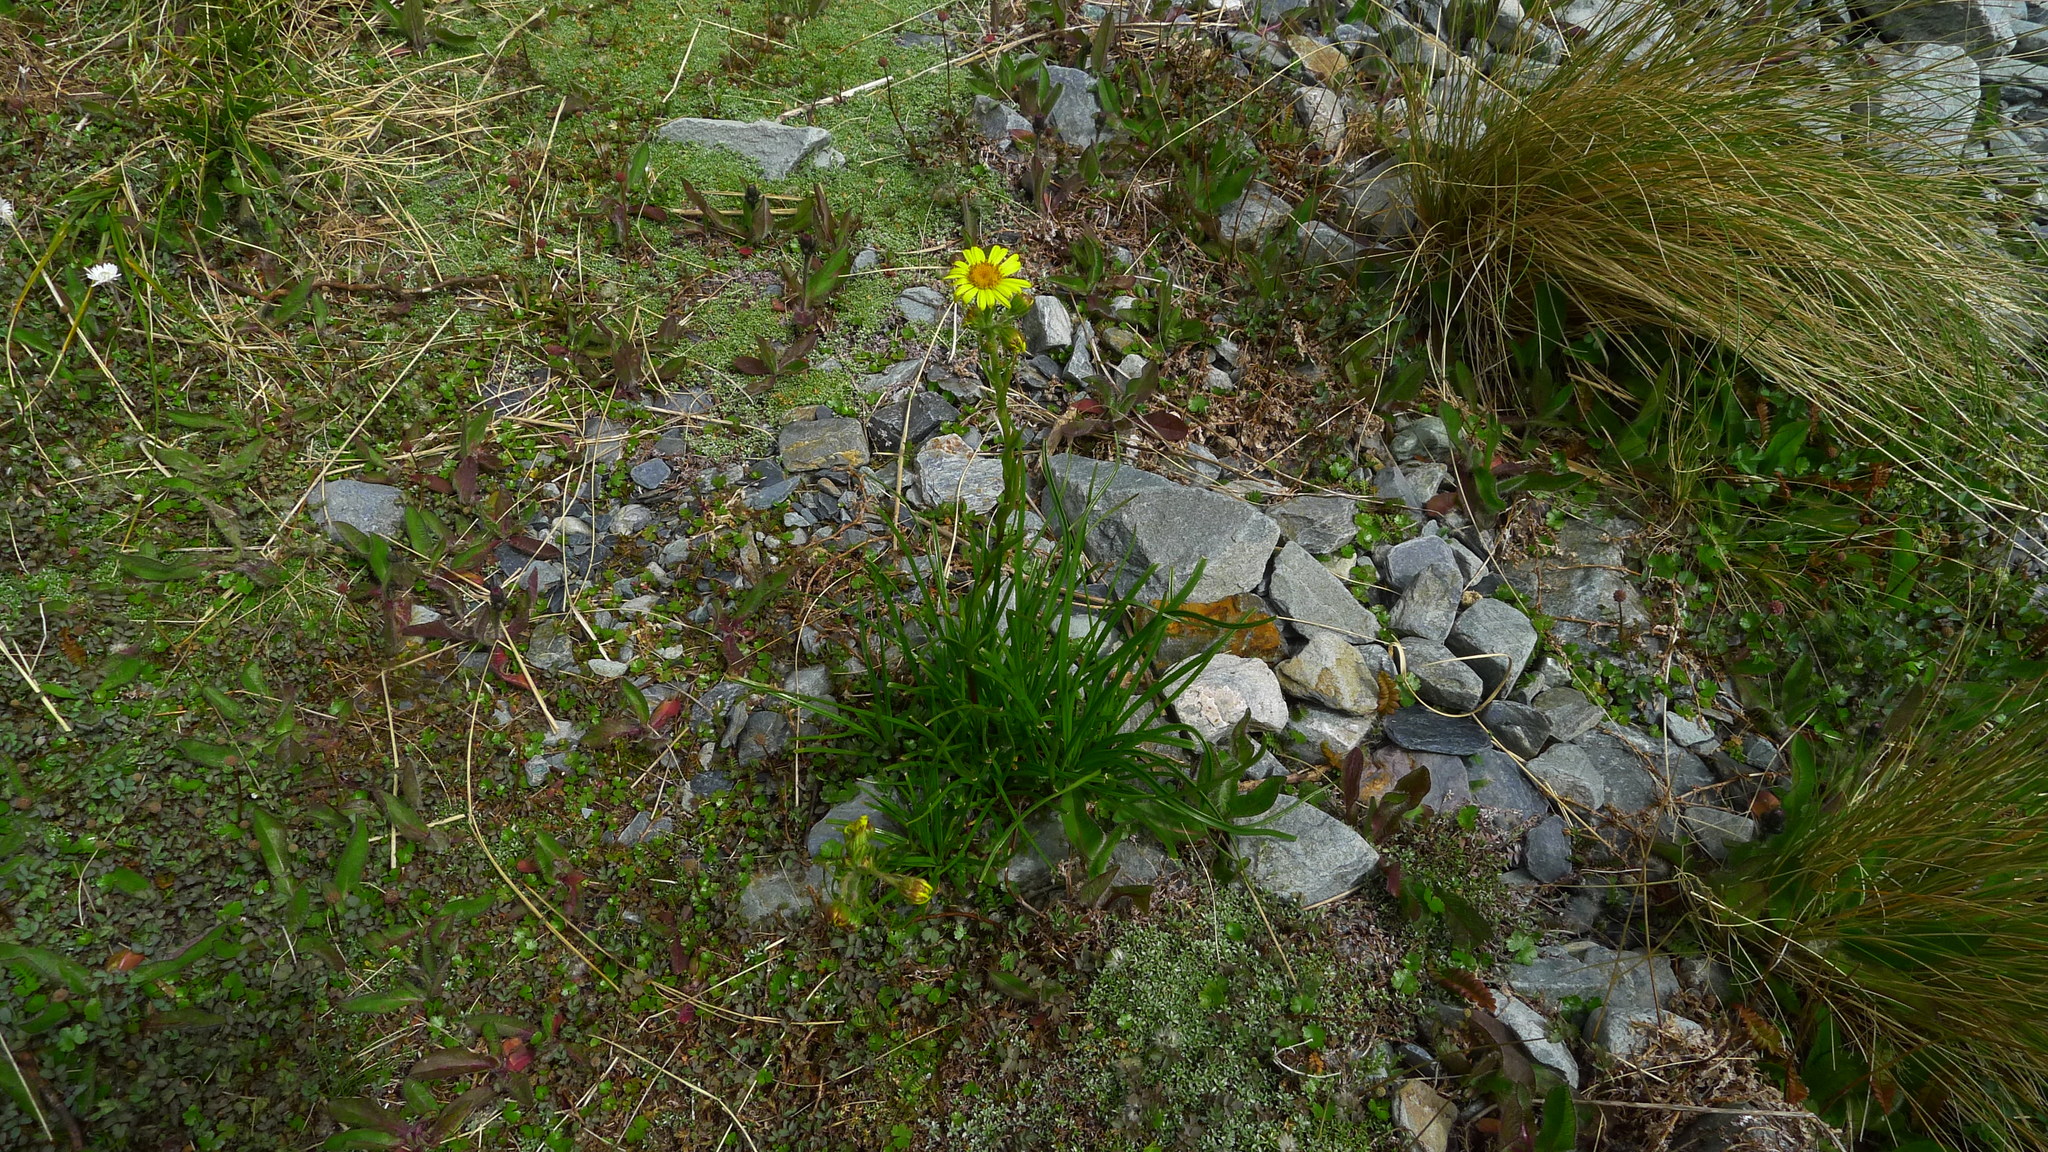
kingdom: Plantae
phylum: Tracheophyta
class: Magnoliopsida
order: Asterales
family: Asteraceae
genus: Dolichoglottis
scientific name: Dolichoglottis lyallii
